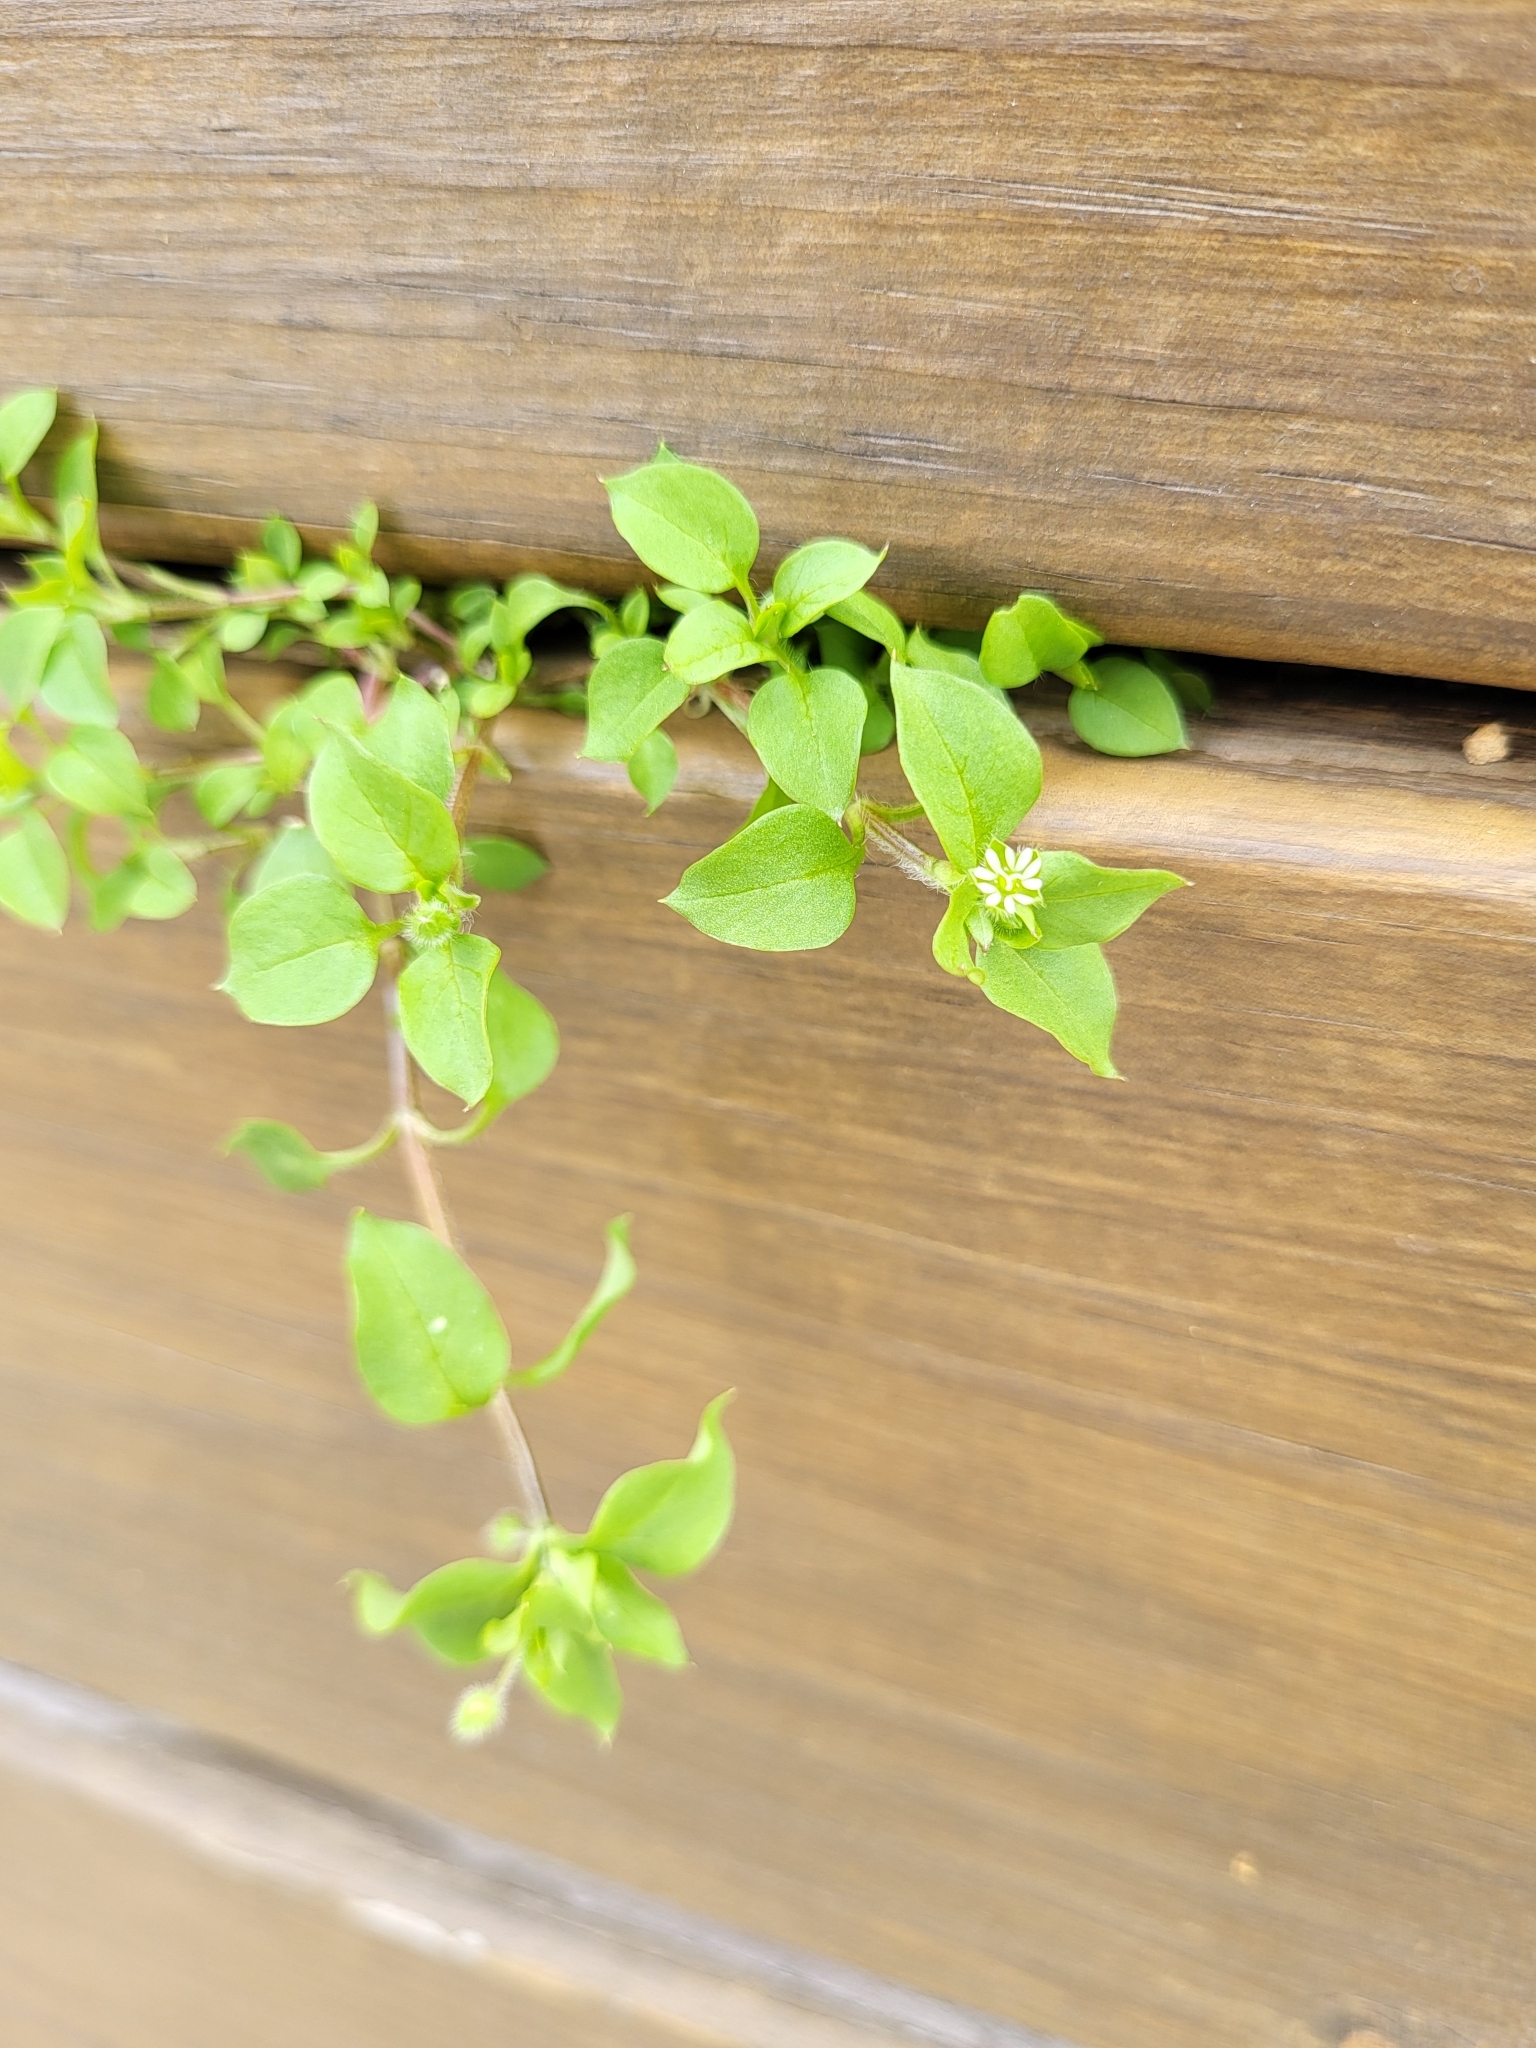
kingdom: Plantae
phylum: Tracheophyta
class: Magnoliopsida
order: Caryophyllales
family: Caryophyllaceae
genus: Stellaria
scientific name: Stellaria media
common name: Common chickweed
